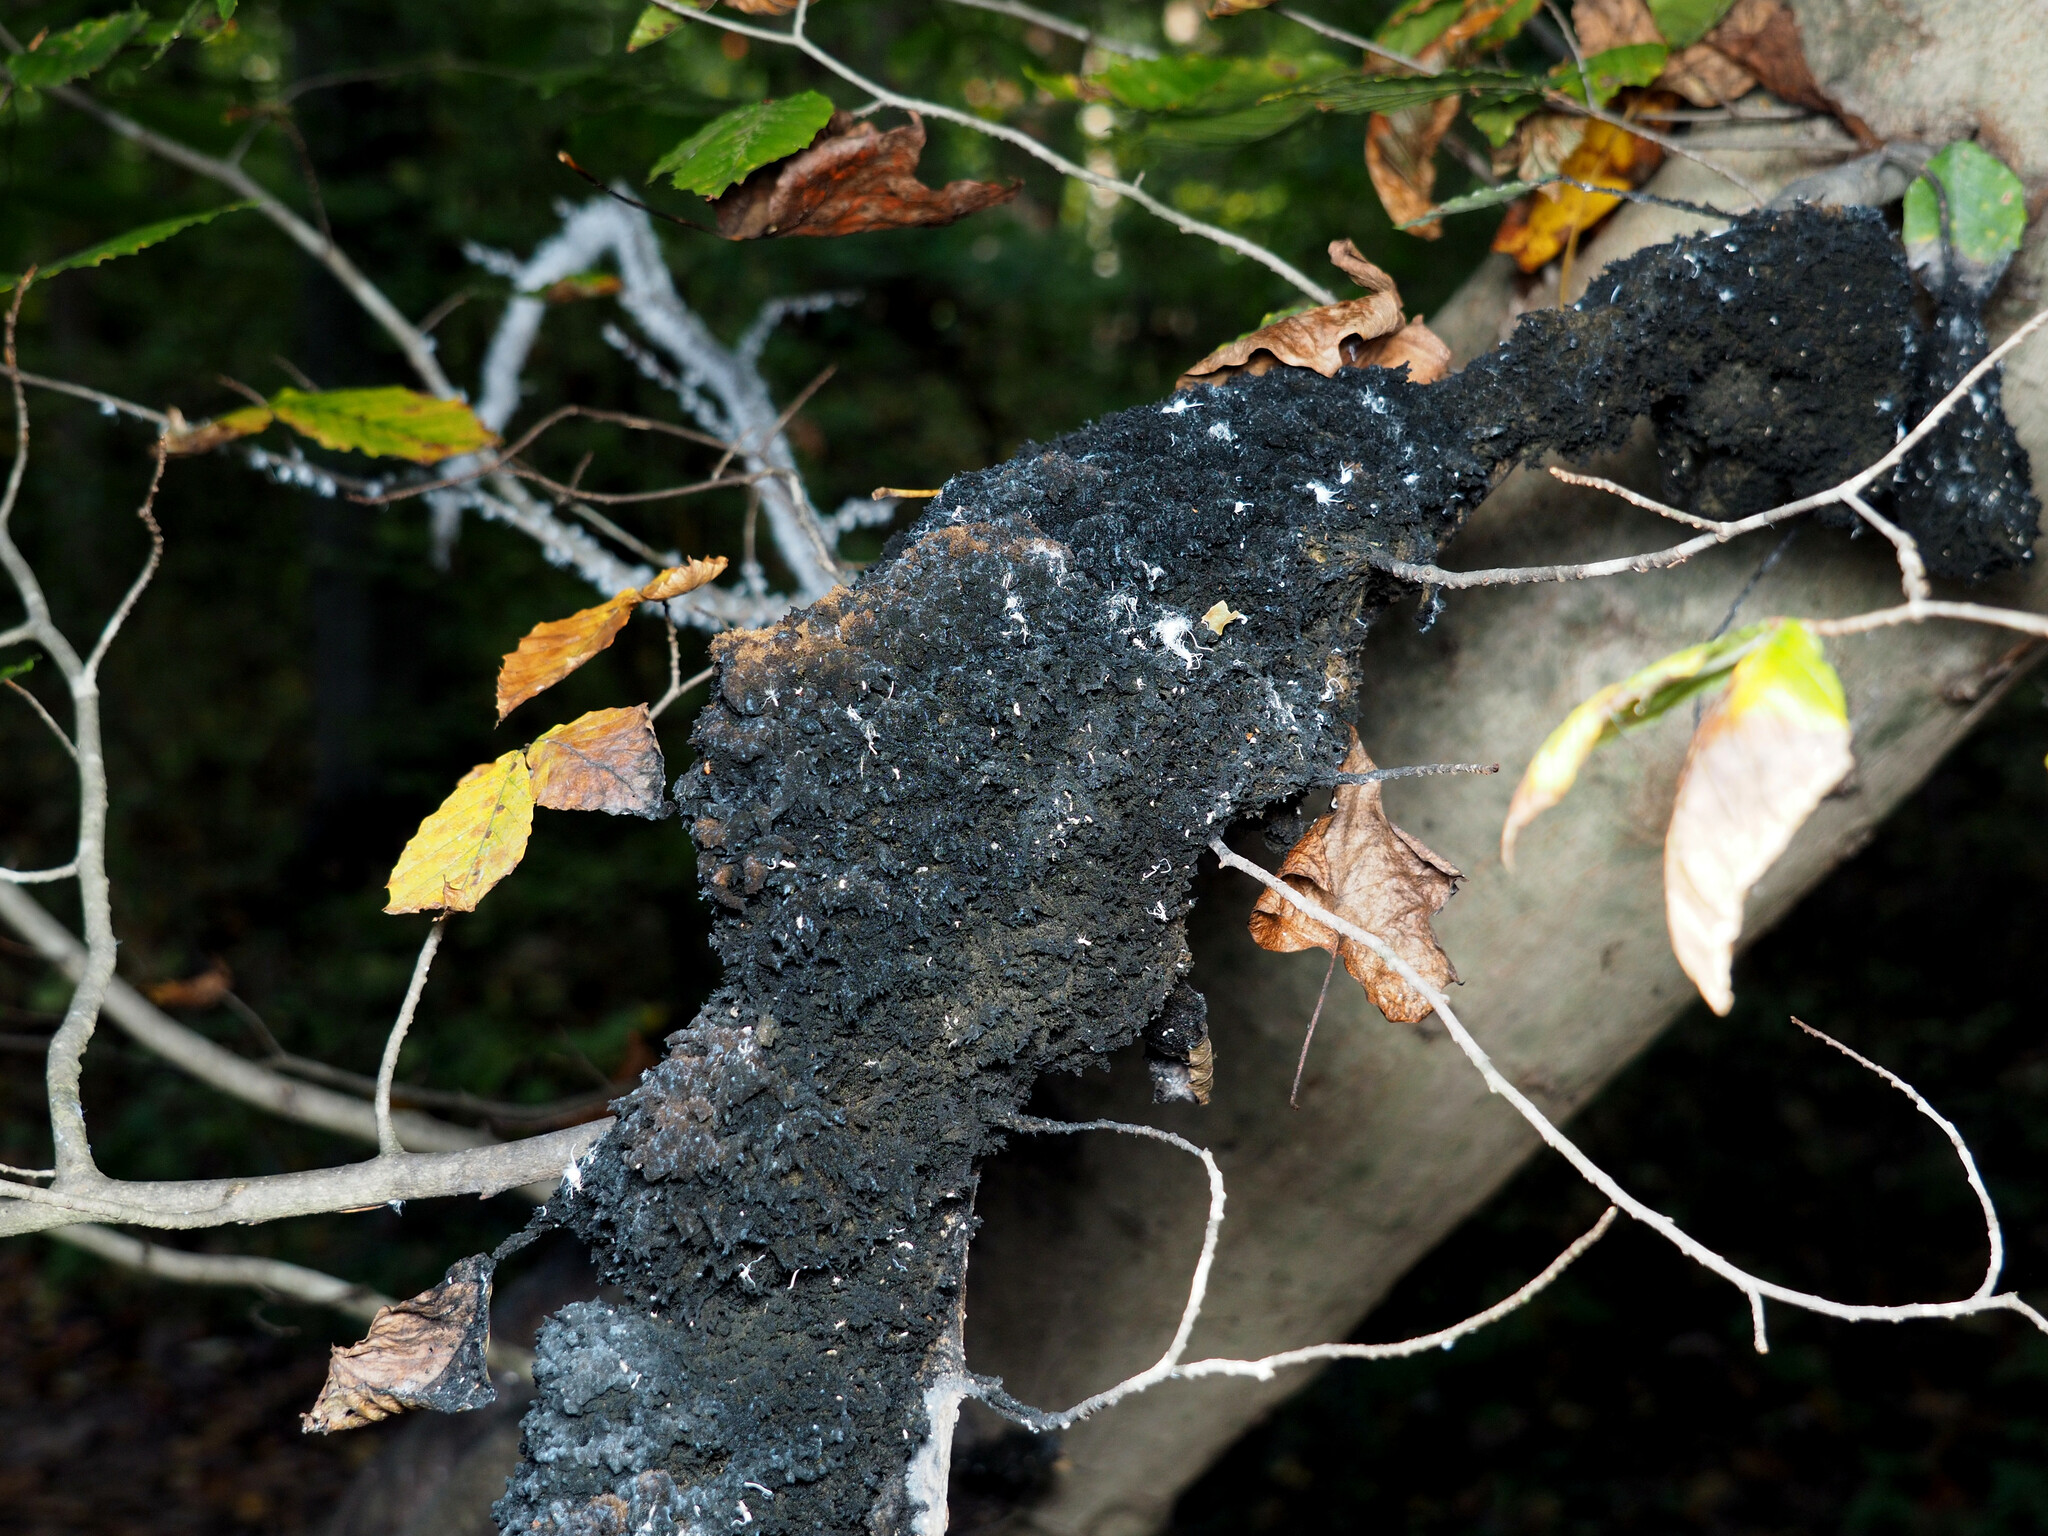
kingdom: Fungi
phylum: Ascomycota
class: Dothideomycetes
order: Capnodiales
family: Capnodiaceae
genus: Scorias
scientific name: Scorias spongiosa
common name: Black sooty mold
